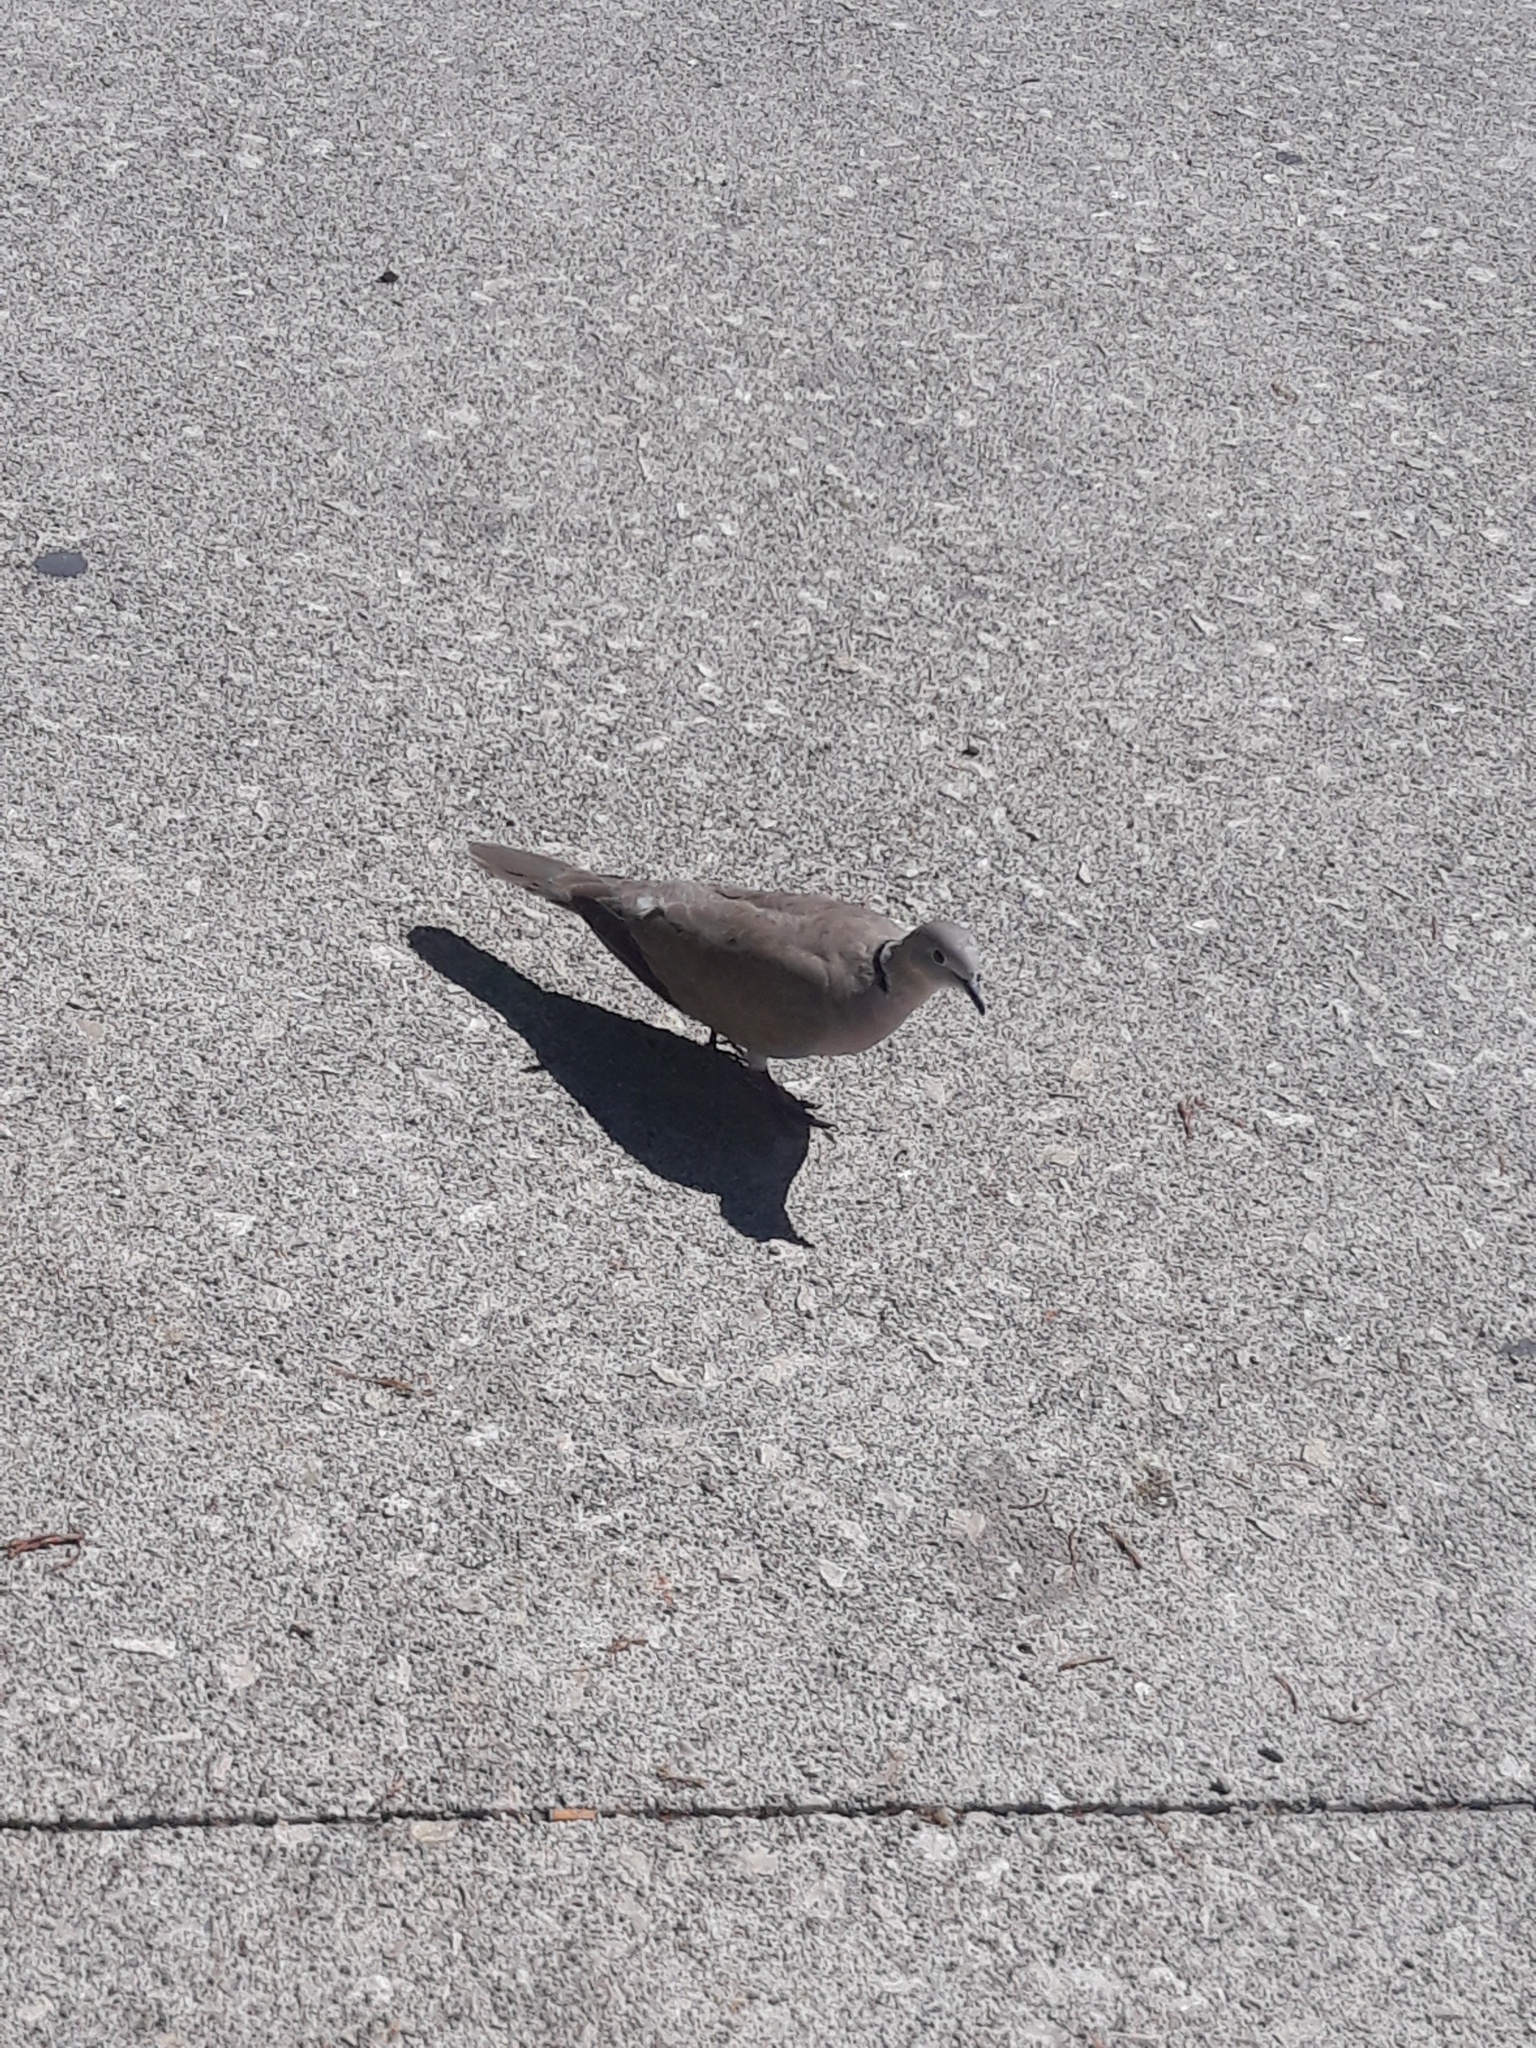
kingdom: Animalia
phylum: Chordata
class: Aves
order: Columbiformes
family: Columbidae
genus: Streptopelia
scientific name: Streptopelia decaocto
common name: Eurasian collared dove
